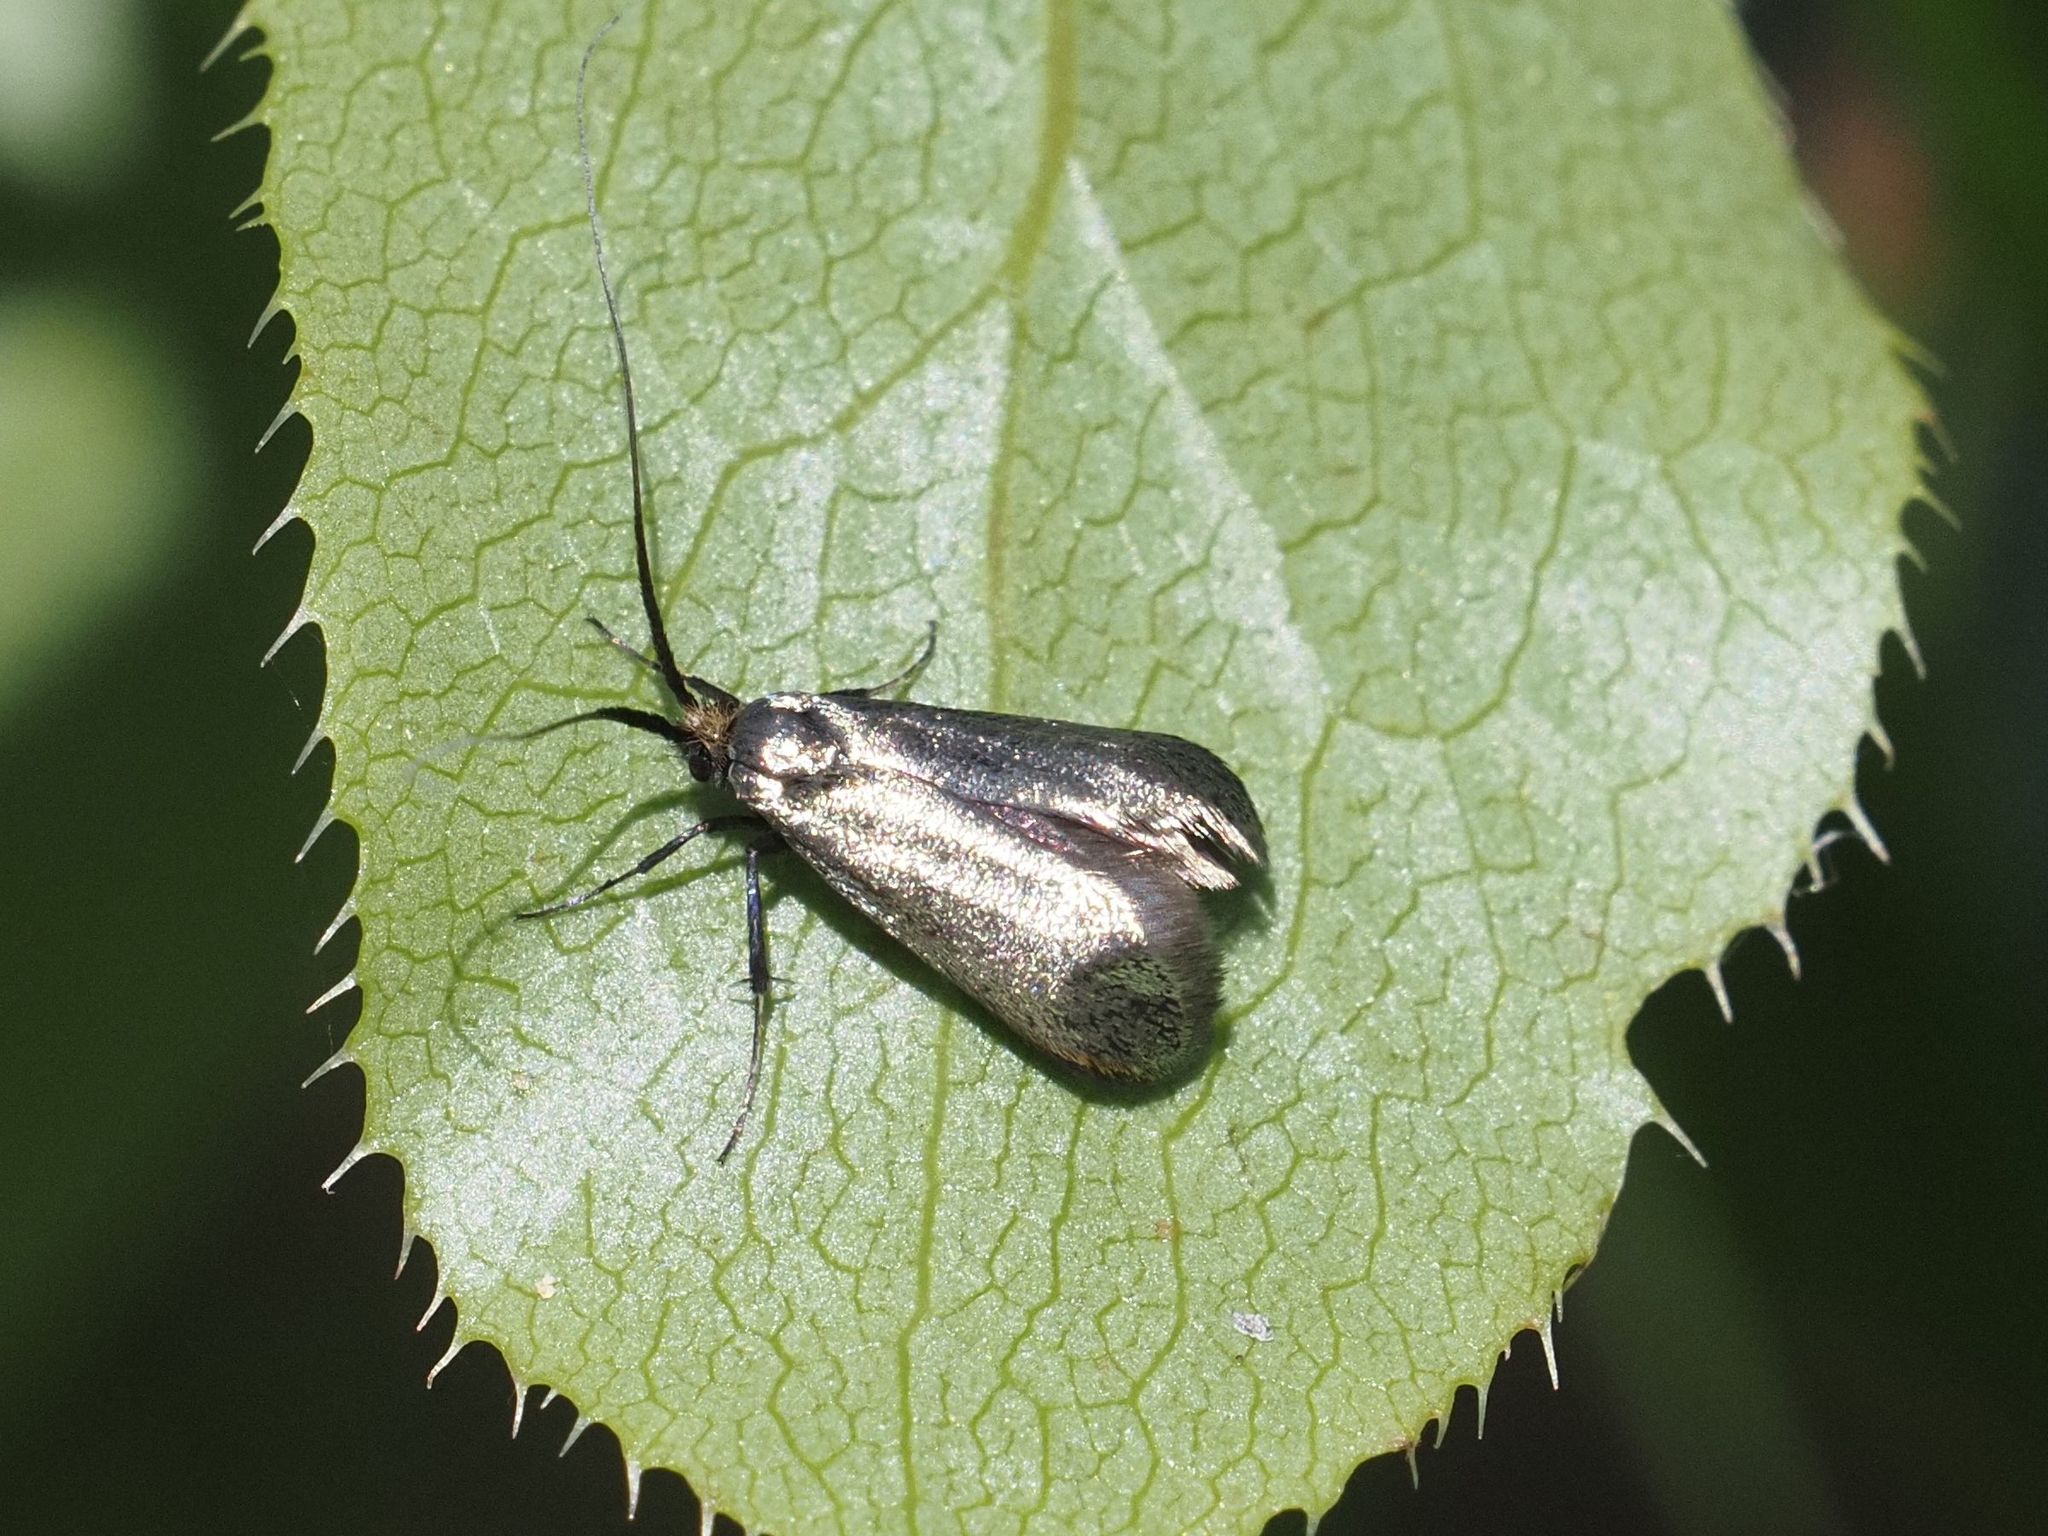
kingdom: Animalia
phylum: Arthropoda
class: Insecta
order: Lepidoptera
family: Adelidae
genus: Adela
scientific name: Adela viridella
